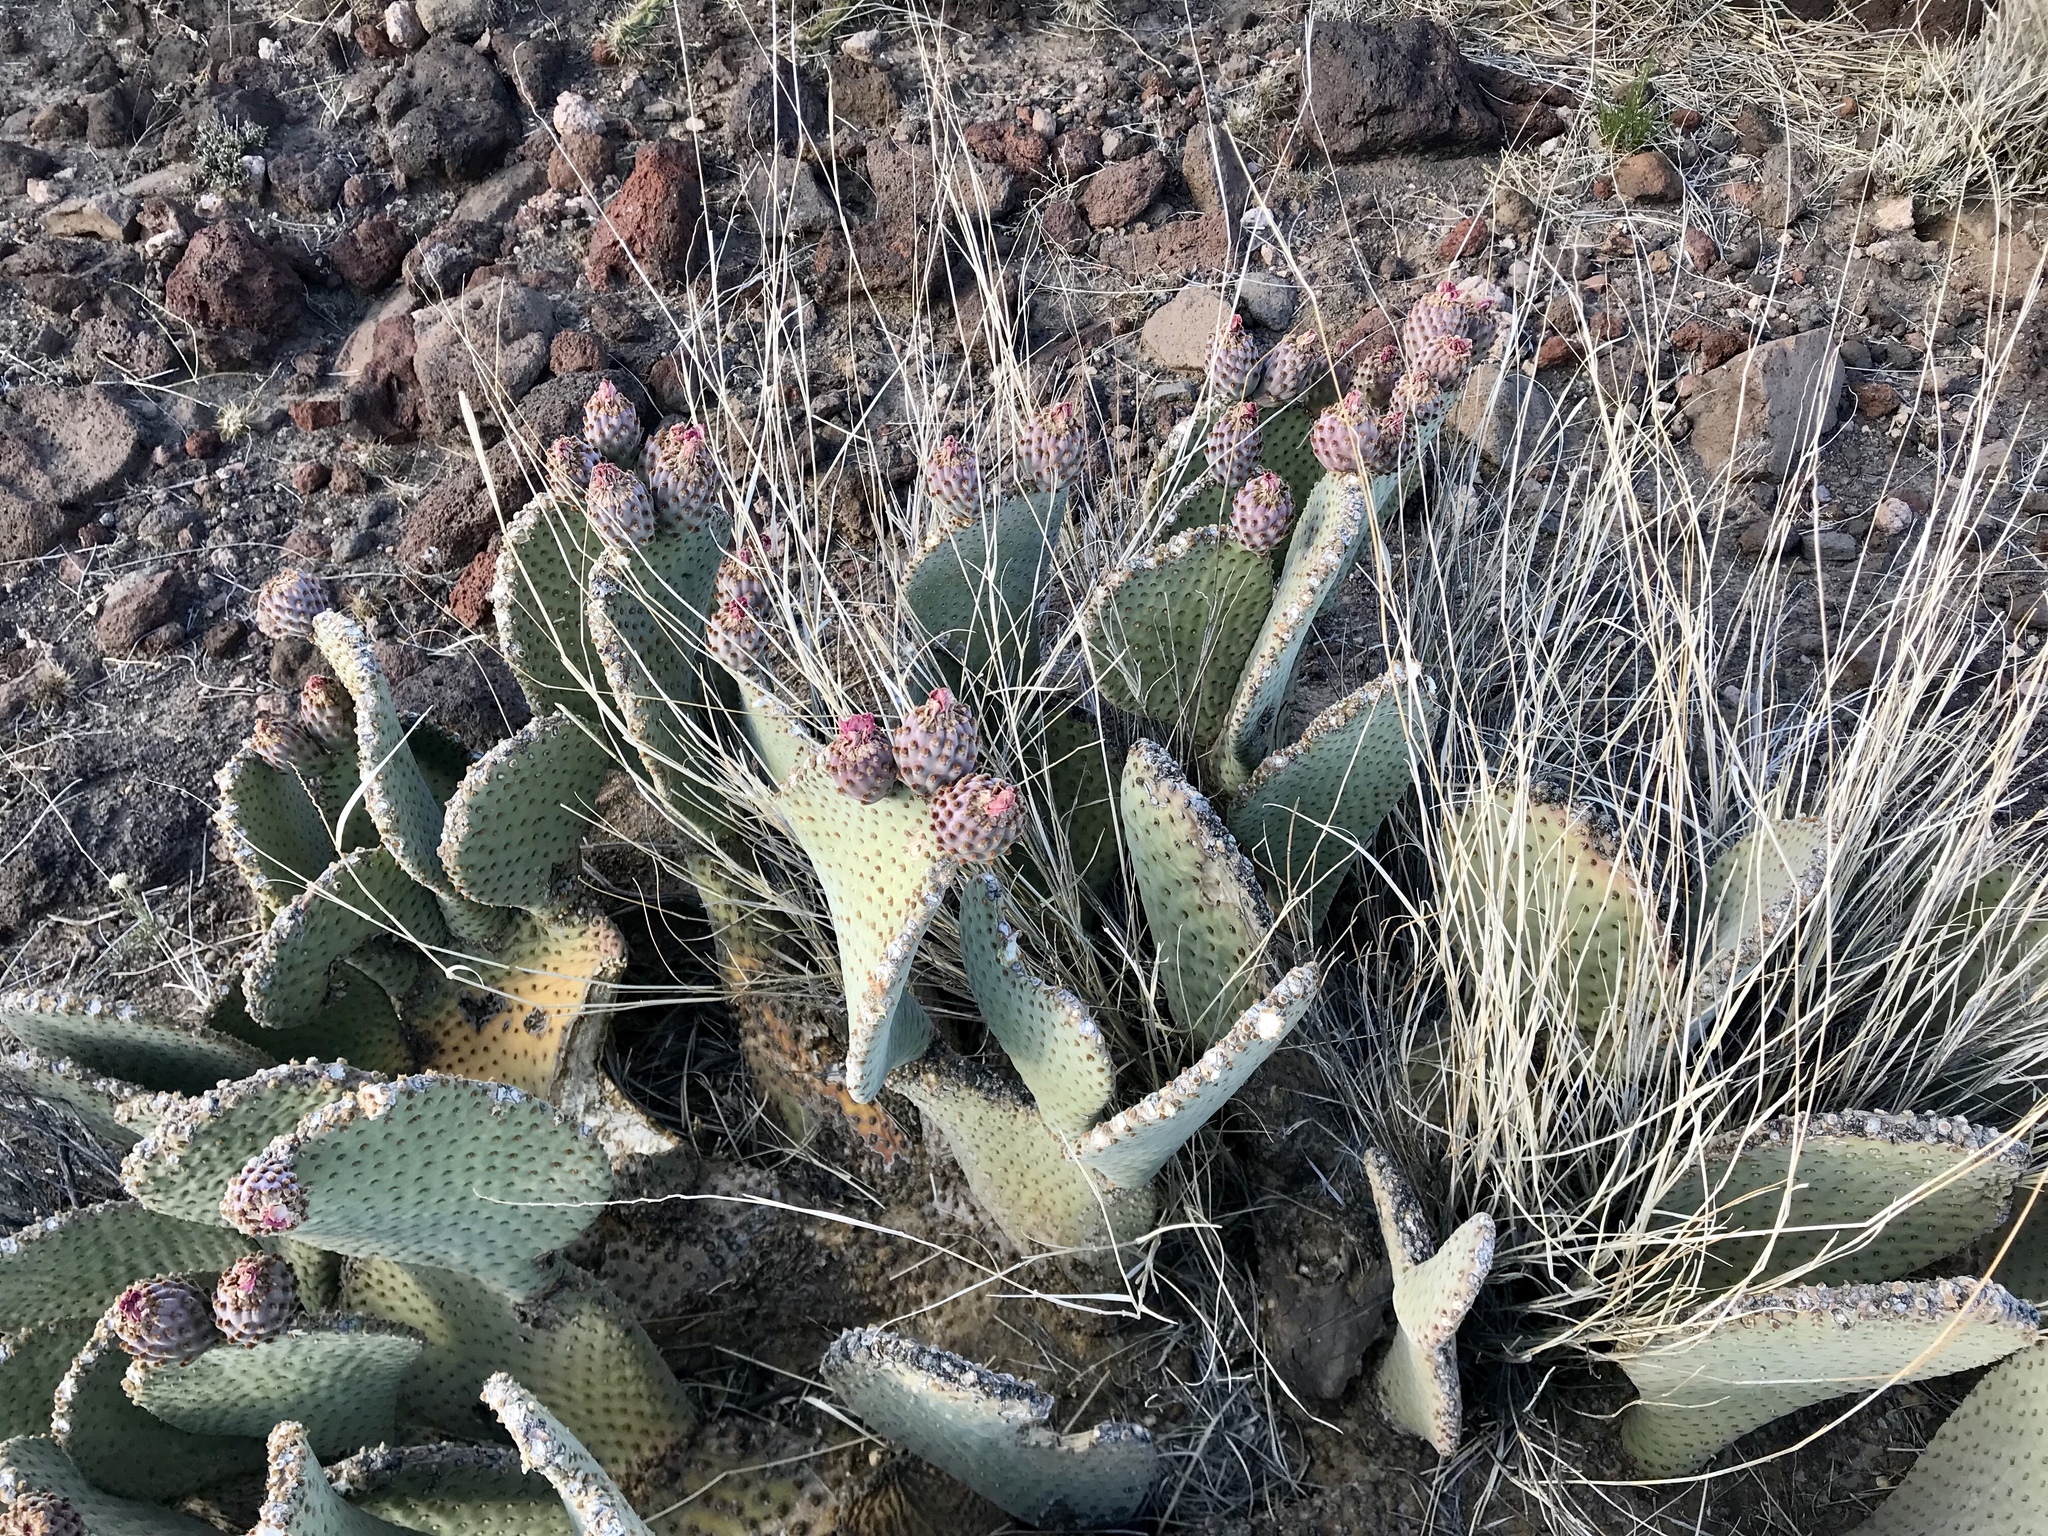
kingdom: Plantae
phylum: Tracheophyta
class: Magnoliopsida
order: Caryophyllales
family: Cactaceae
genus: Opuntia
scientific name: Opuntia basilaris
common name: Beavertail prickly-pear
